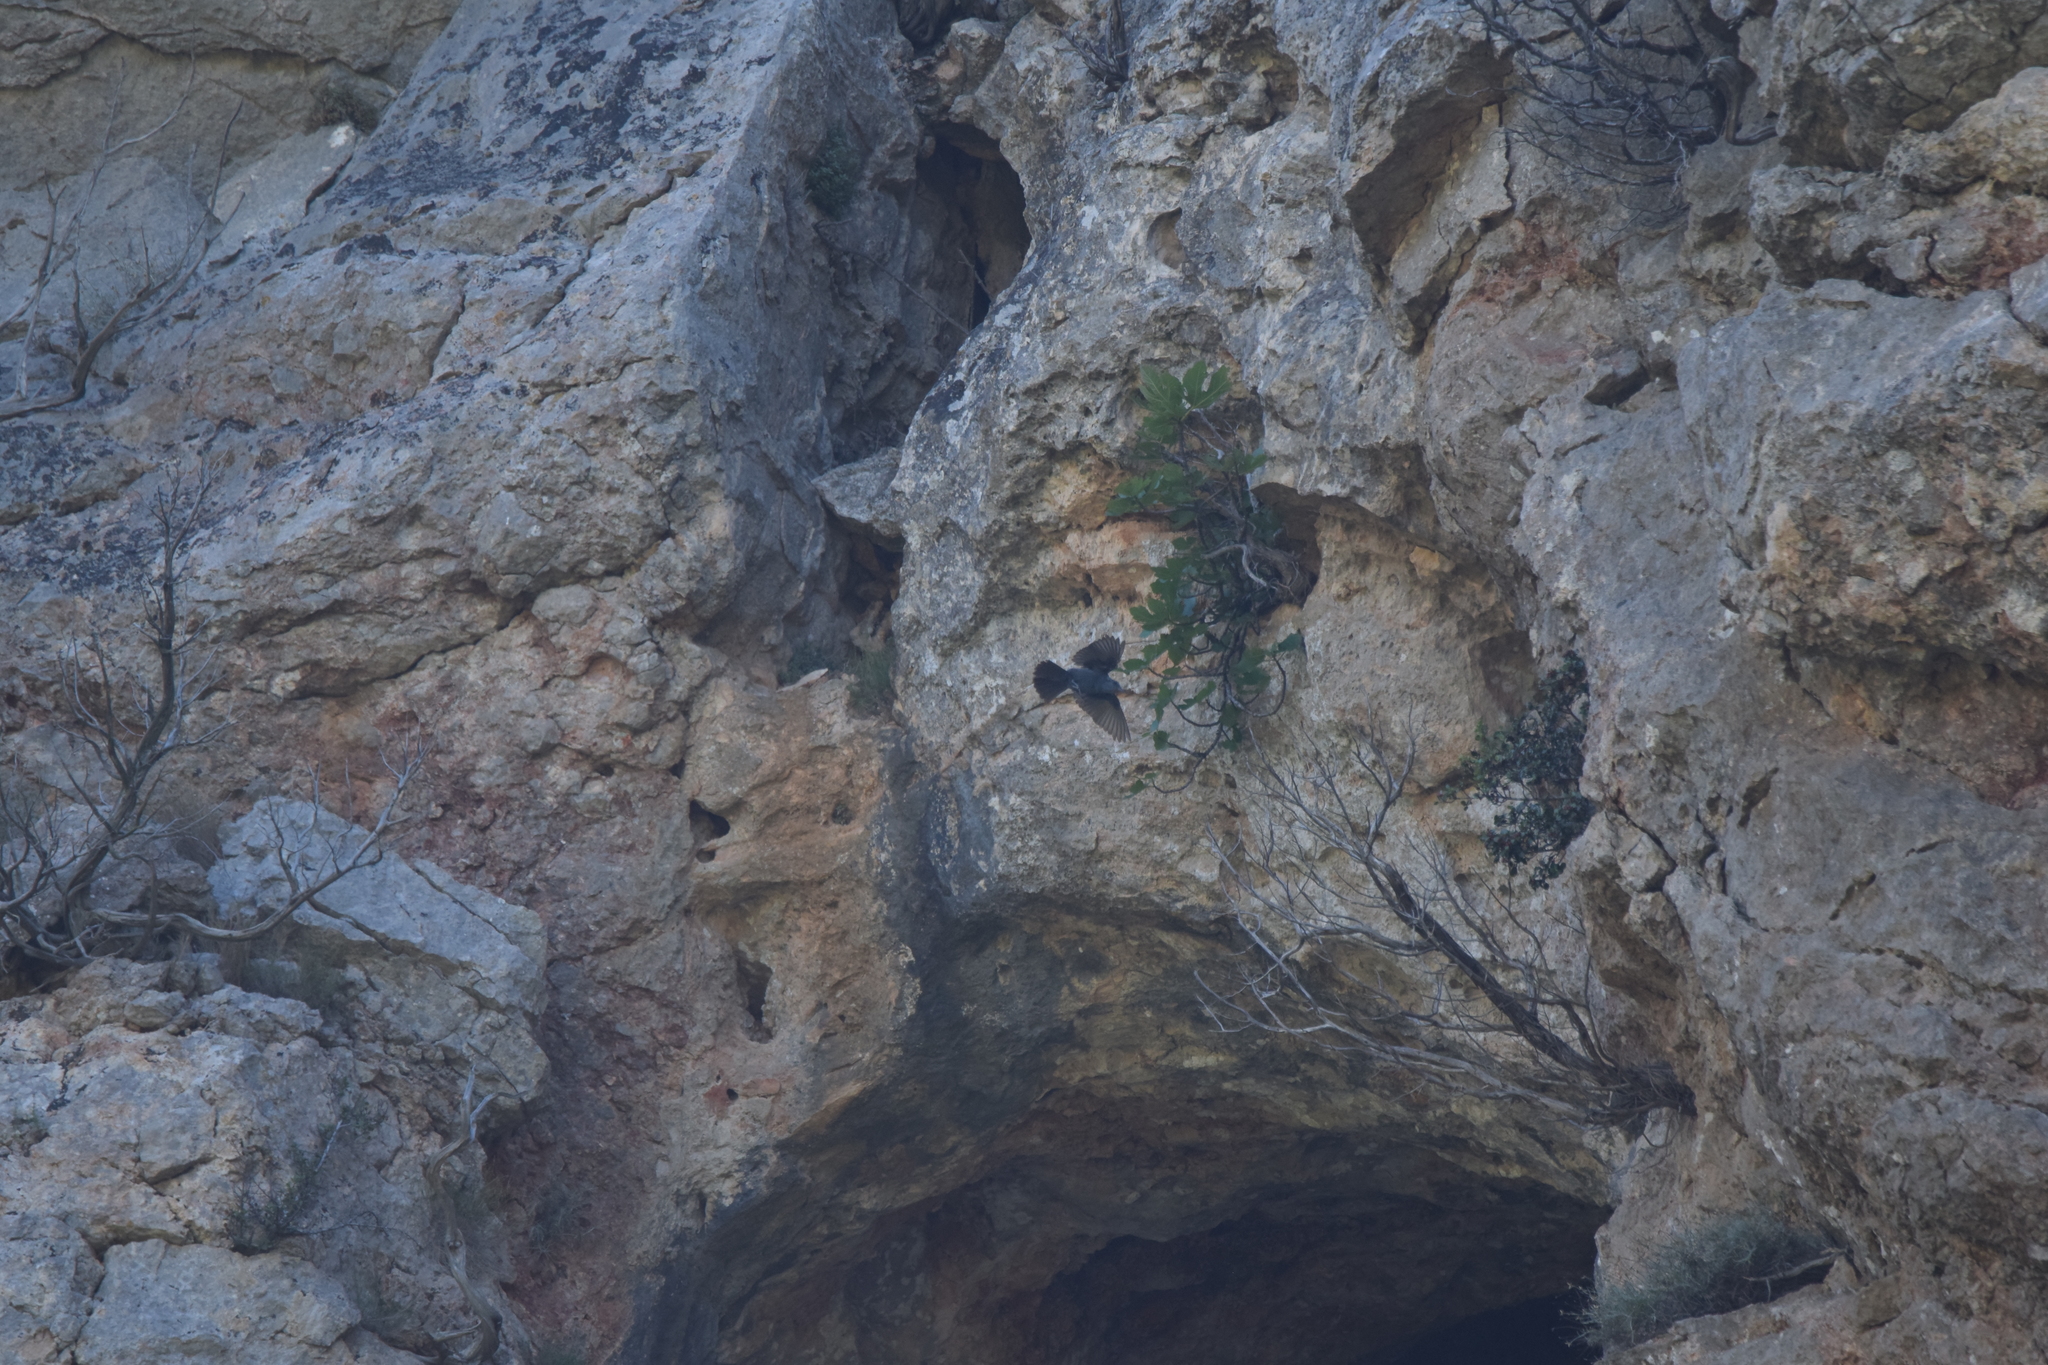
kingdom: Animalia
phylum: Chordata
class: Aves
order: Passeriformes
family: Muscicapidae
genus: Monticola
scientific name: Monticola solitarius
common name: Blue rock thrush
